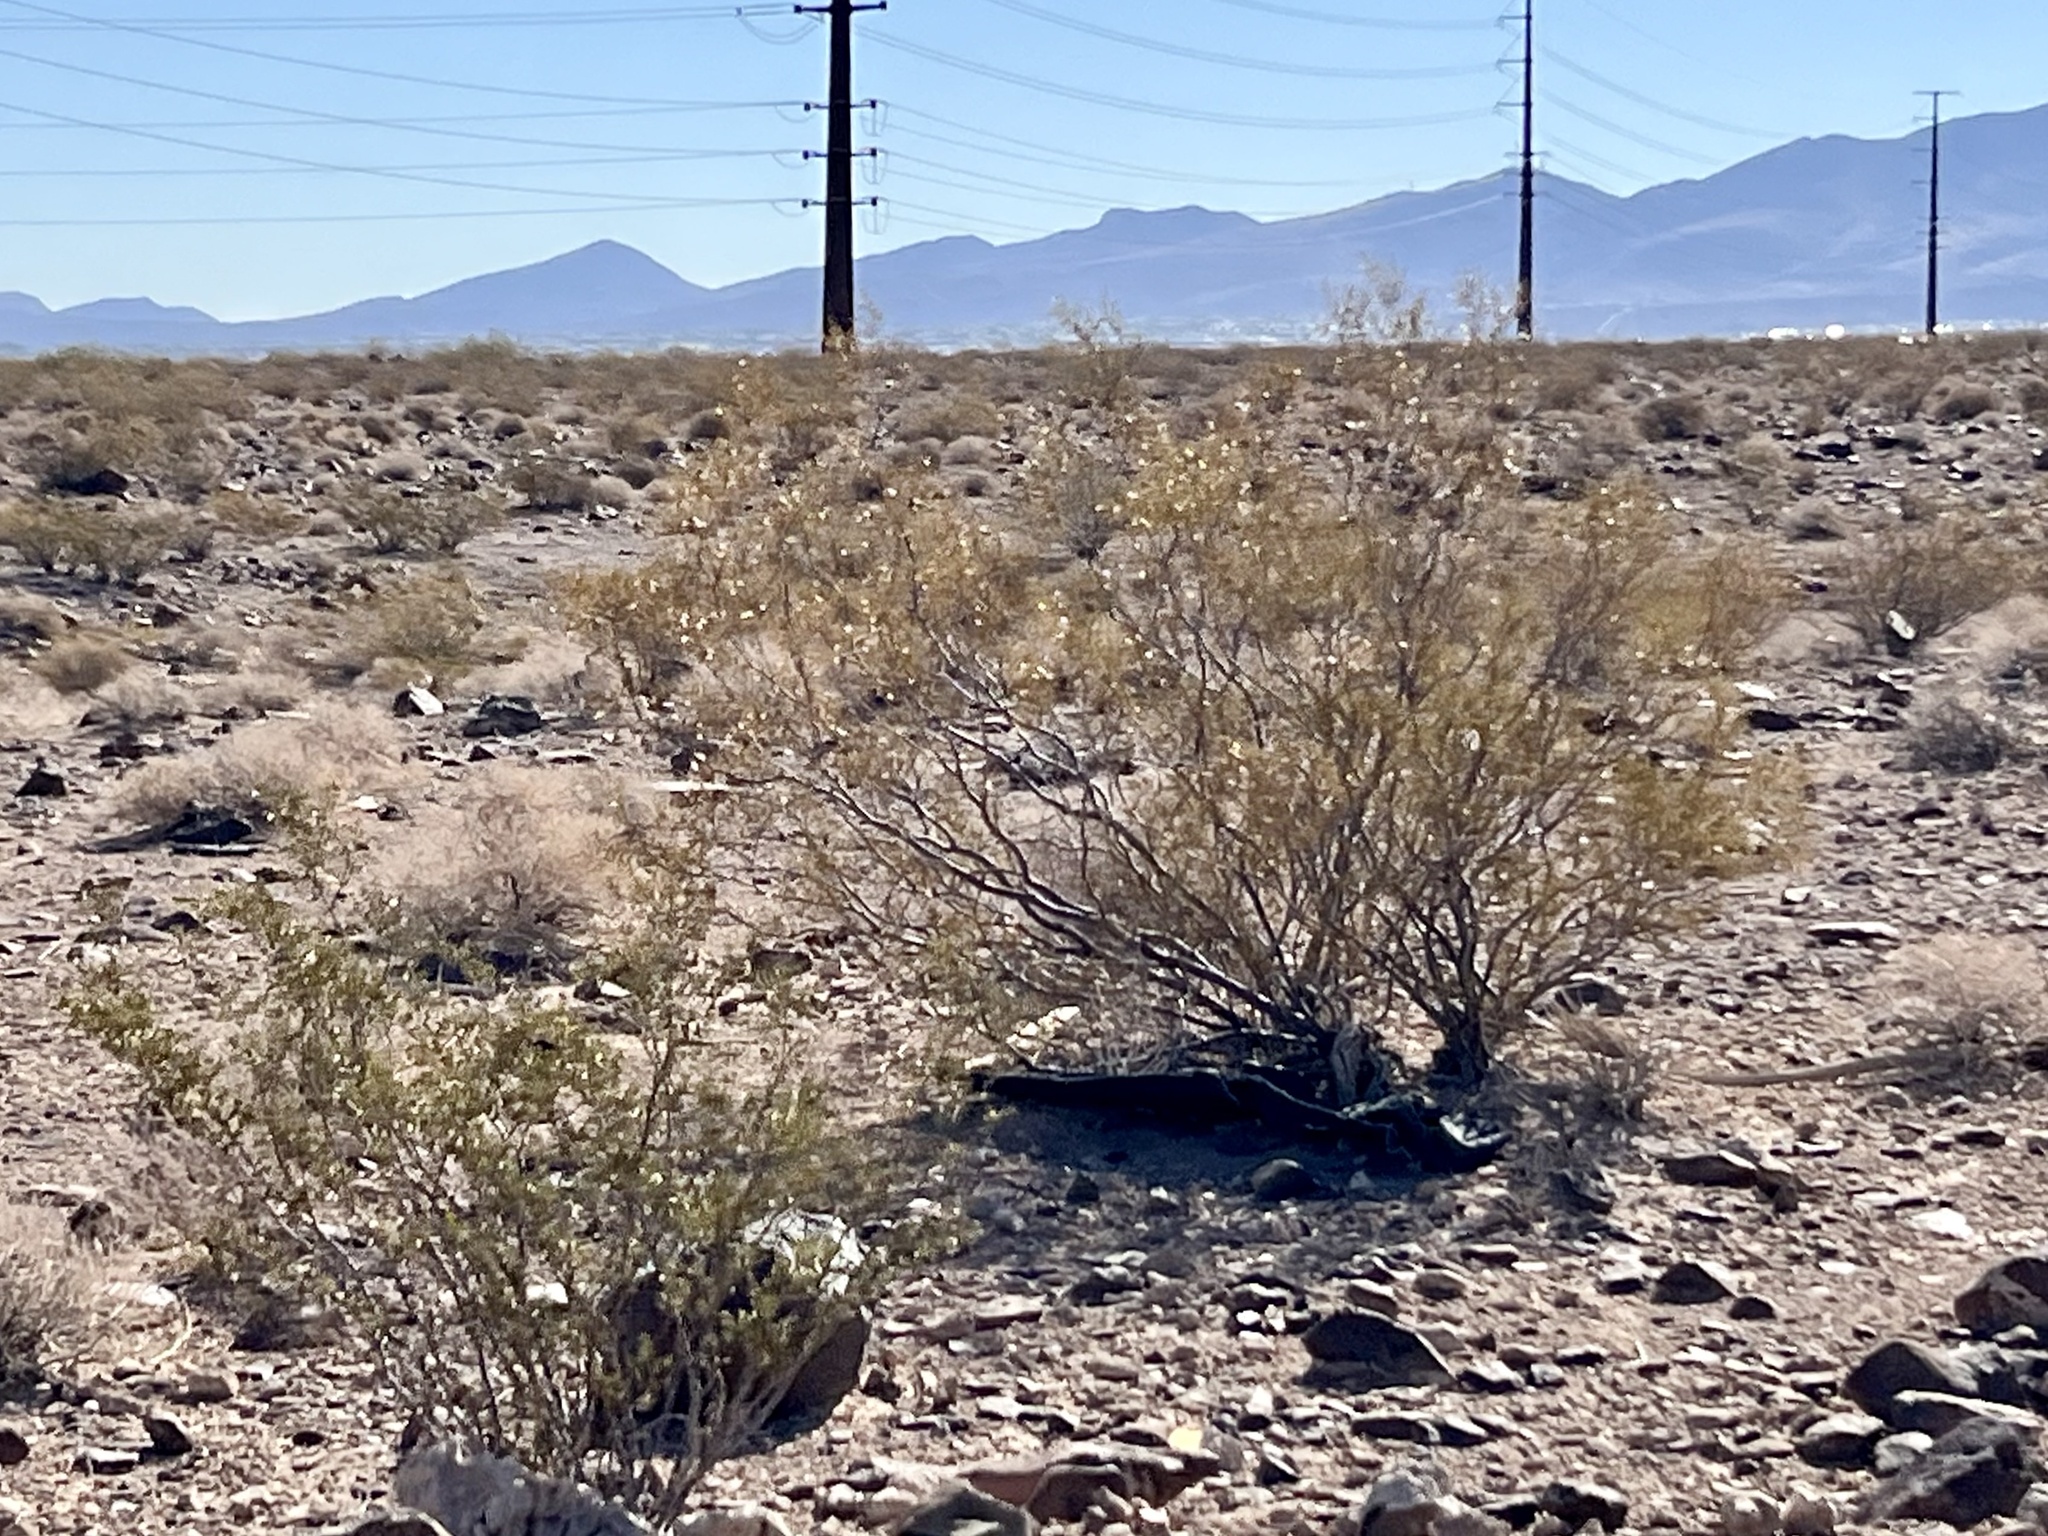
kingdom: Plantae
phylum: Tracheophyta
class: Magnoliopsida
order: Zygophyllales
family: Zygophyllaceae
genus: Larrea
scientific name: Larrea tridentata
